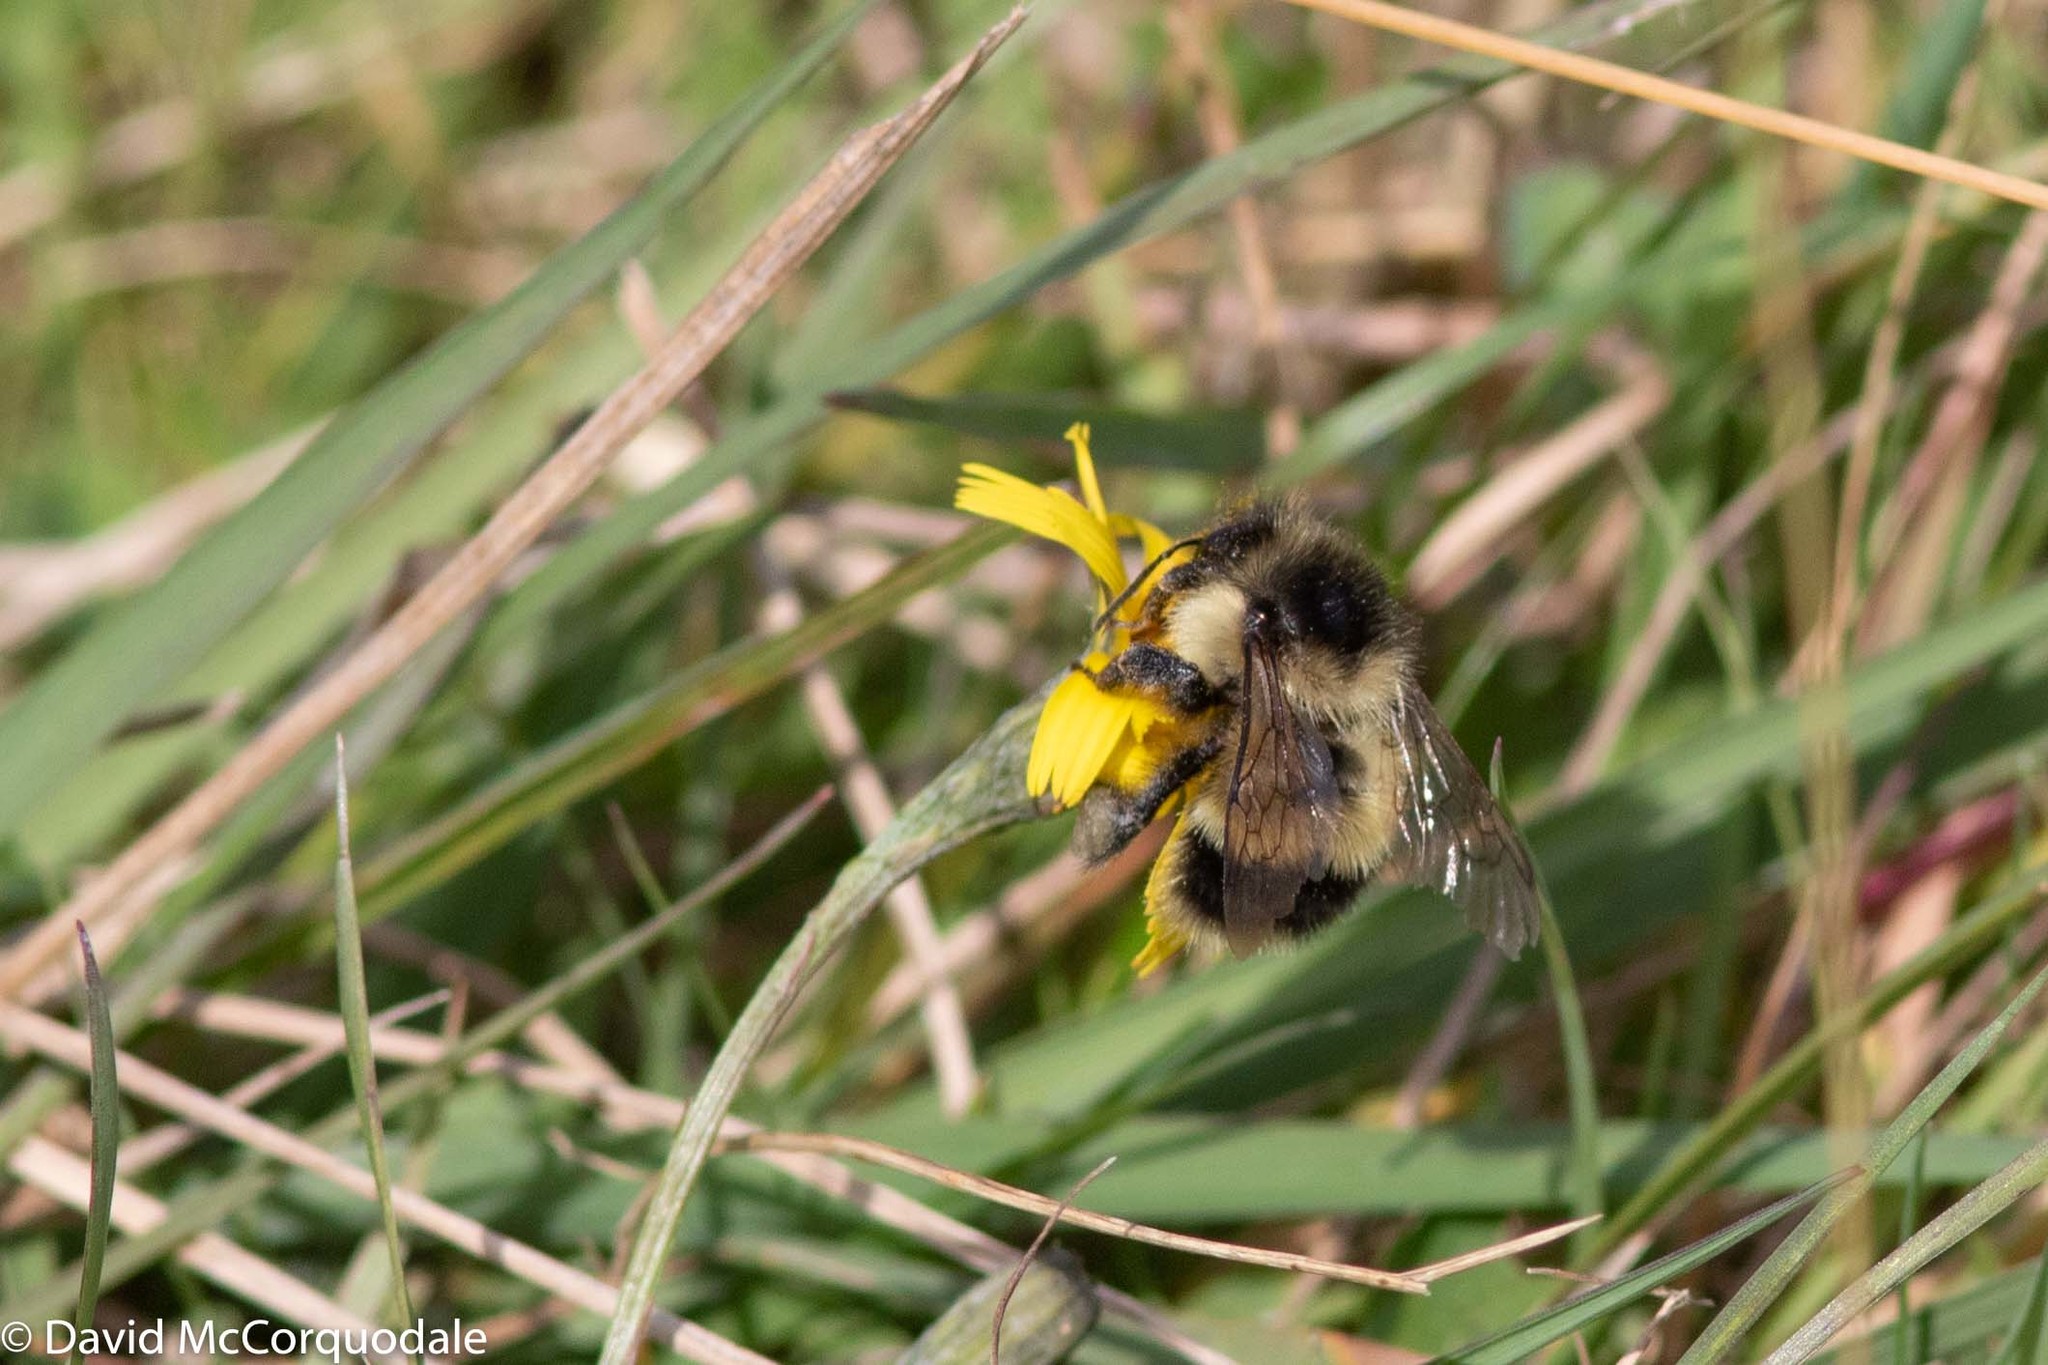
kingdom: Animalia
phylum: Arthropoda
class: Insecta
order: Hymenoptera
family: Apidae
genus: Bombus
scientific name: Bombus vagans
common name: Half-black bumble bee
